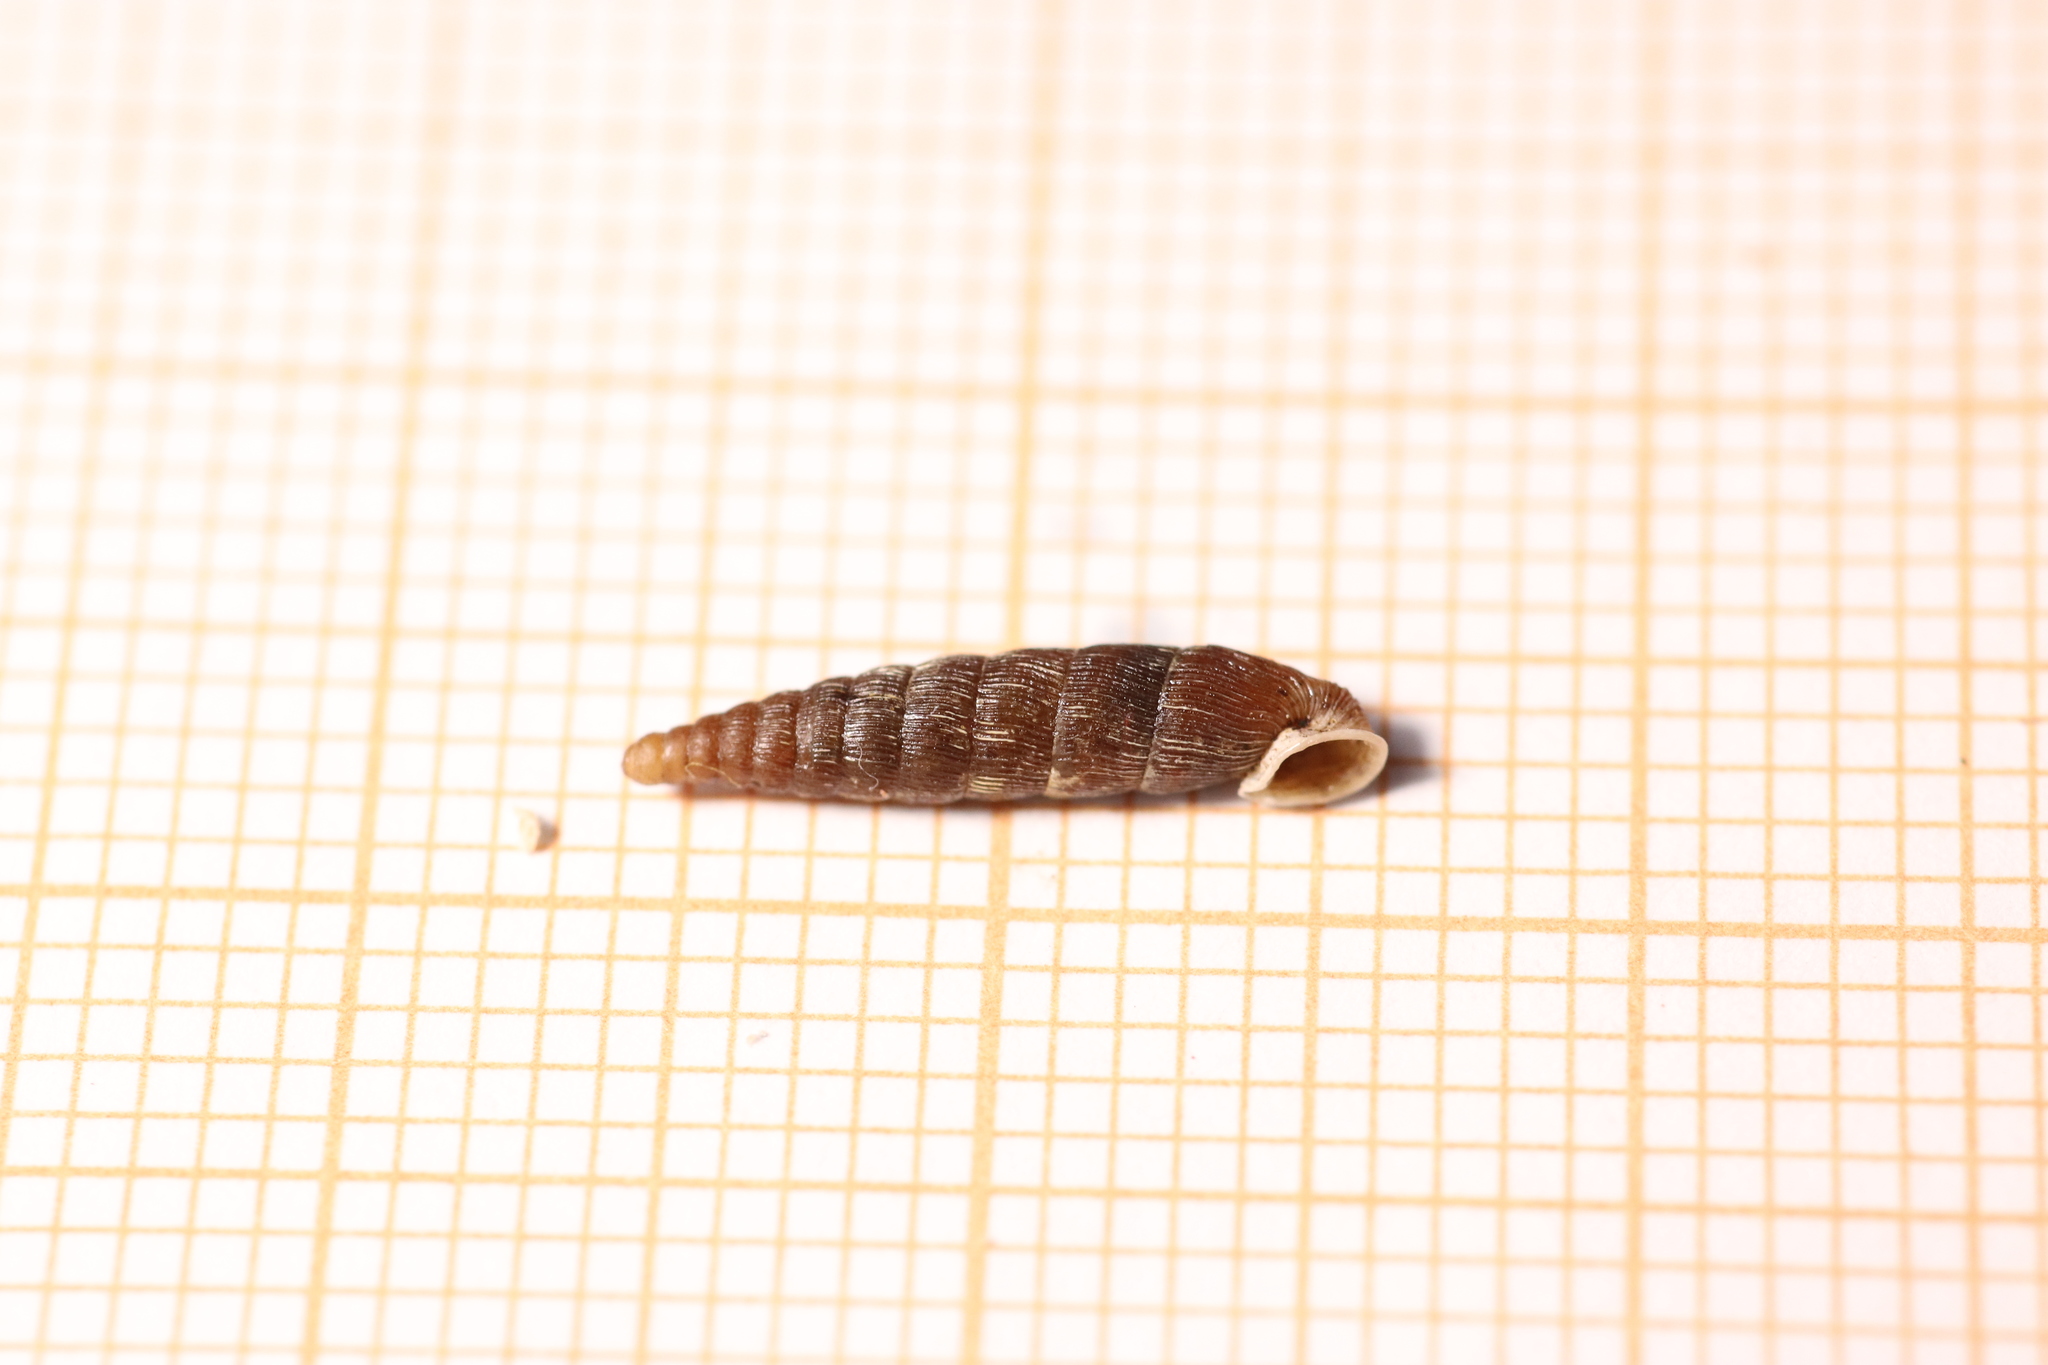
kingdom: Animalia
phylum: Mollusca
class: Gastropoda
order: Stylommatophora
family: Clausiliidae
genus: Clausilia
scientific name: Clausilia bidentata
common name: Two-toothed door snail
